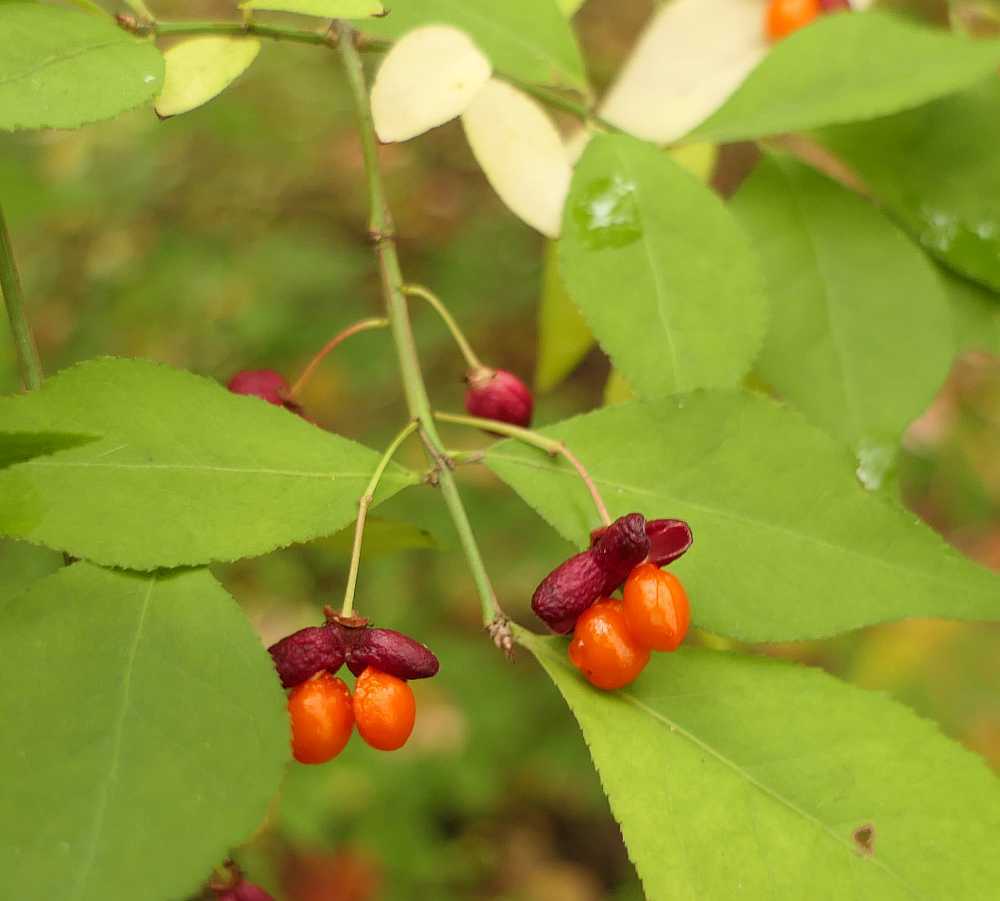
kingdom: Plantae
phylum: Tracheophyta
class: Magnoliopsida
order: Celastrales
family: Celastraceae
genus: Euonymus
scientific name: Euonymus alatus
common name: Winged euonymus
